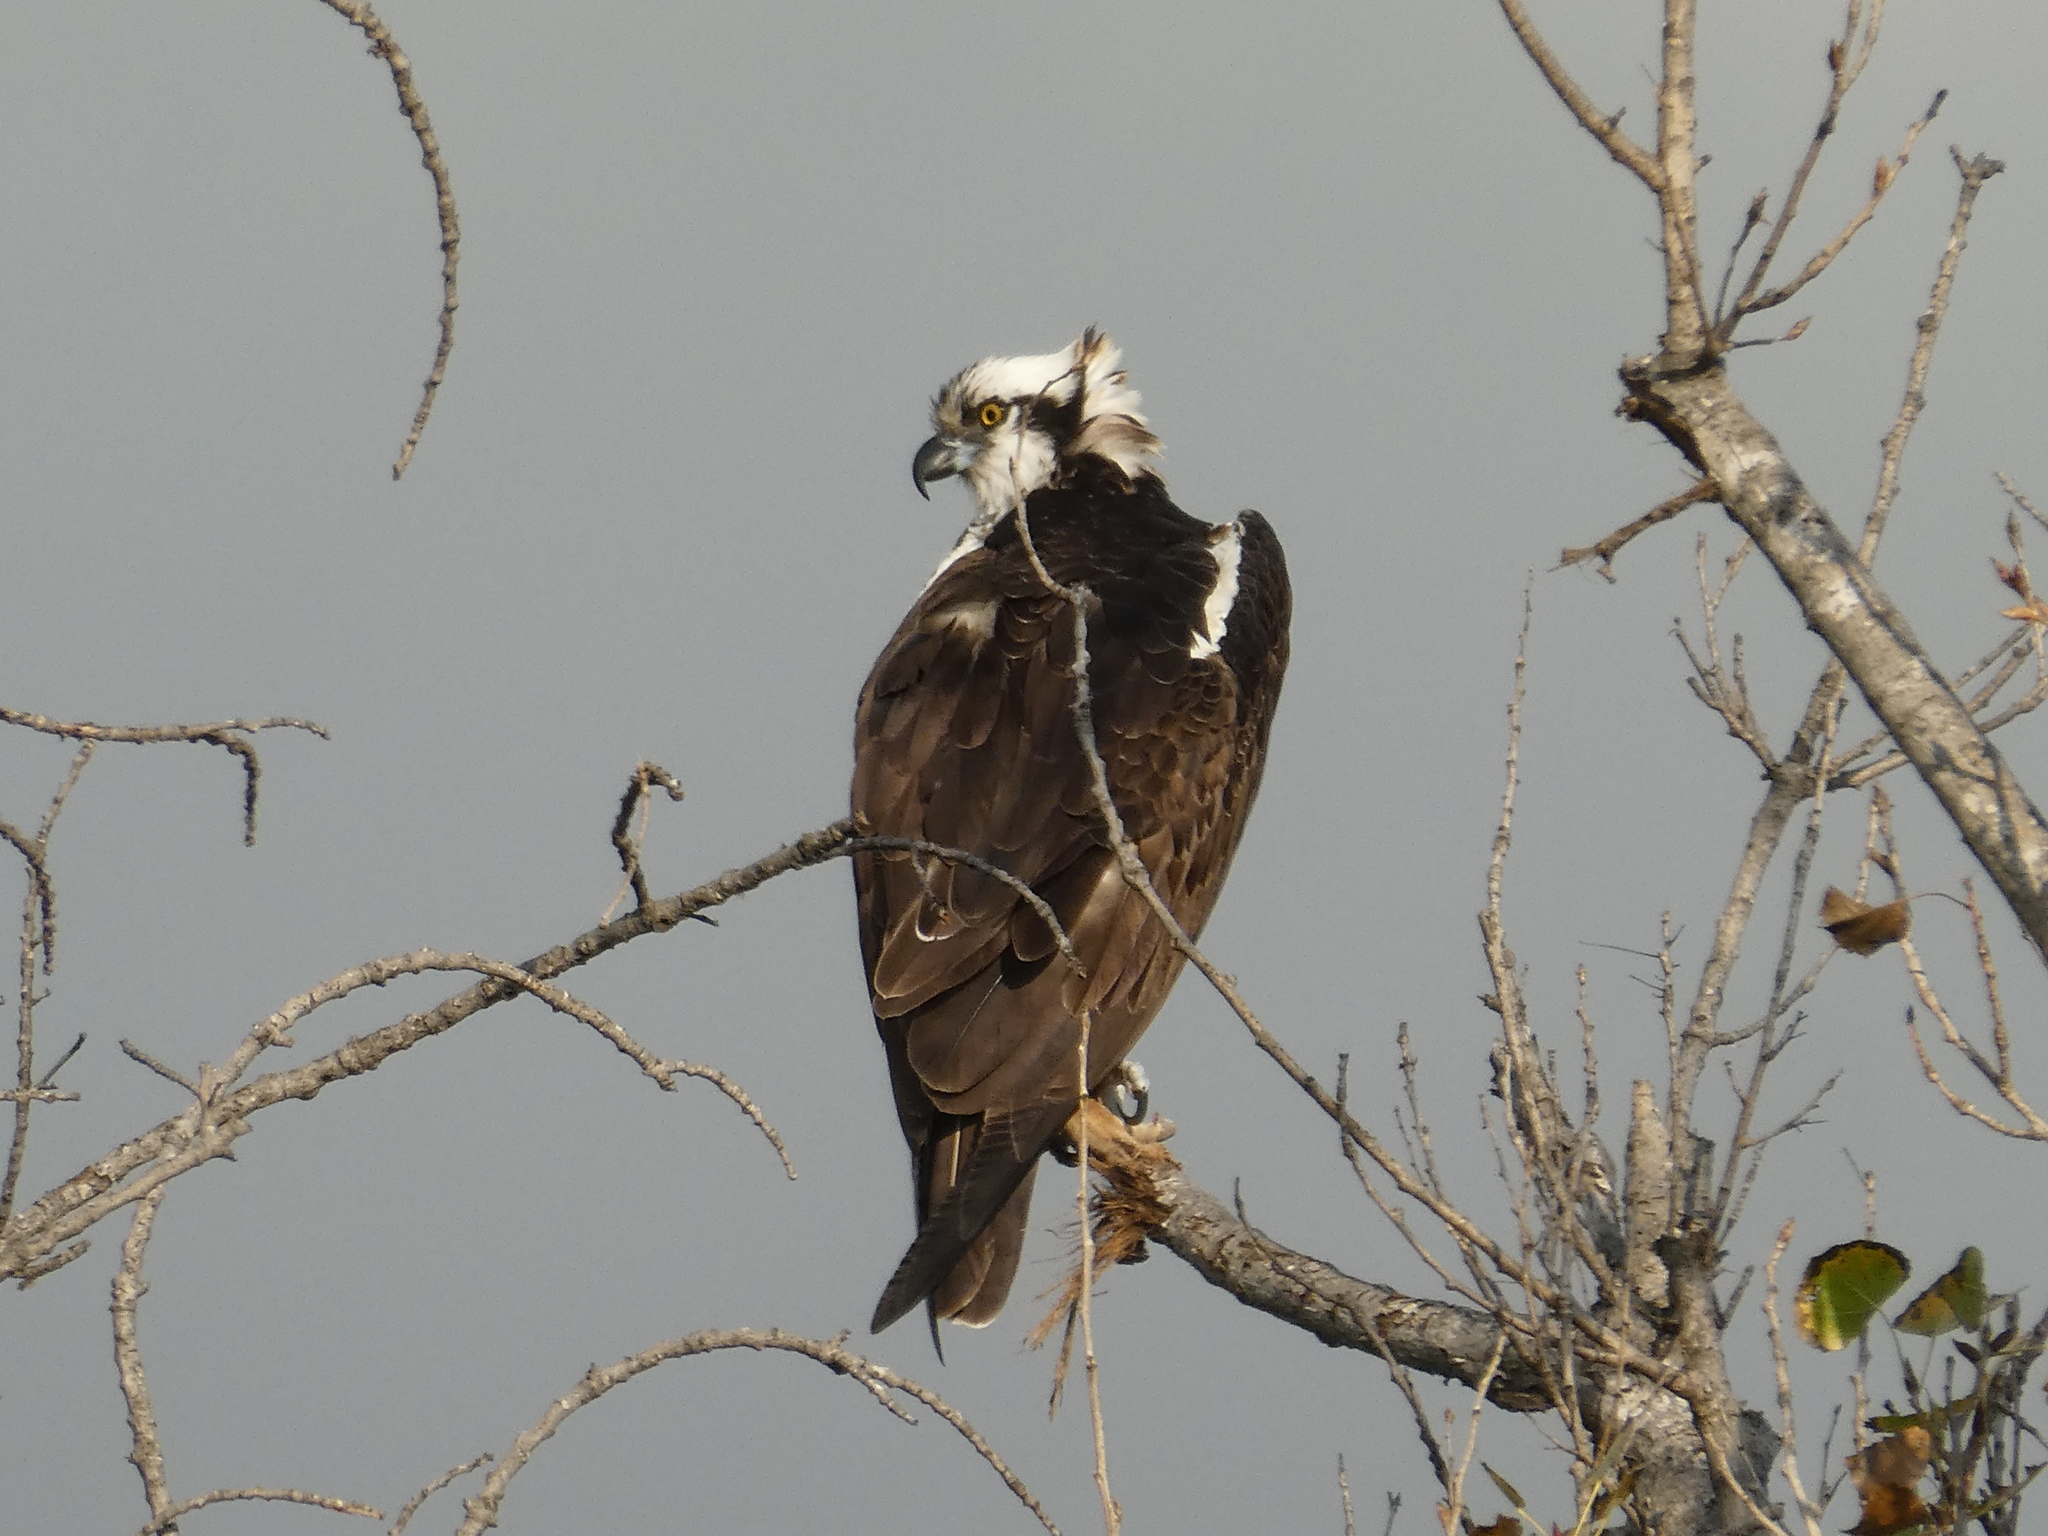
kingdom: Animalia
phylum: Chordata
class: Aves
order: Accipitriformes
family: Pandionidae
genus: Pandion
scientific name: Pandion haliaetus
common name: Osprey
